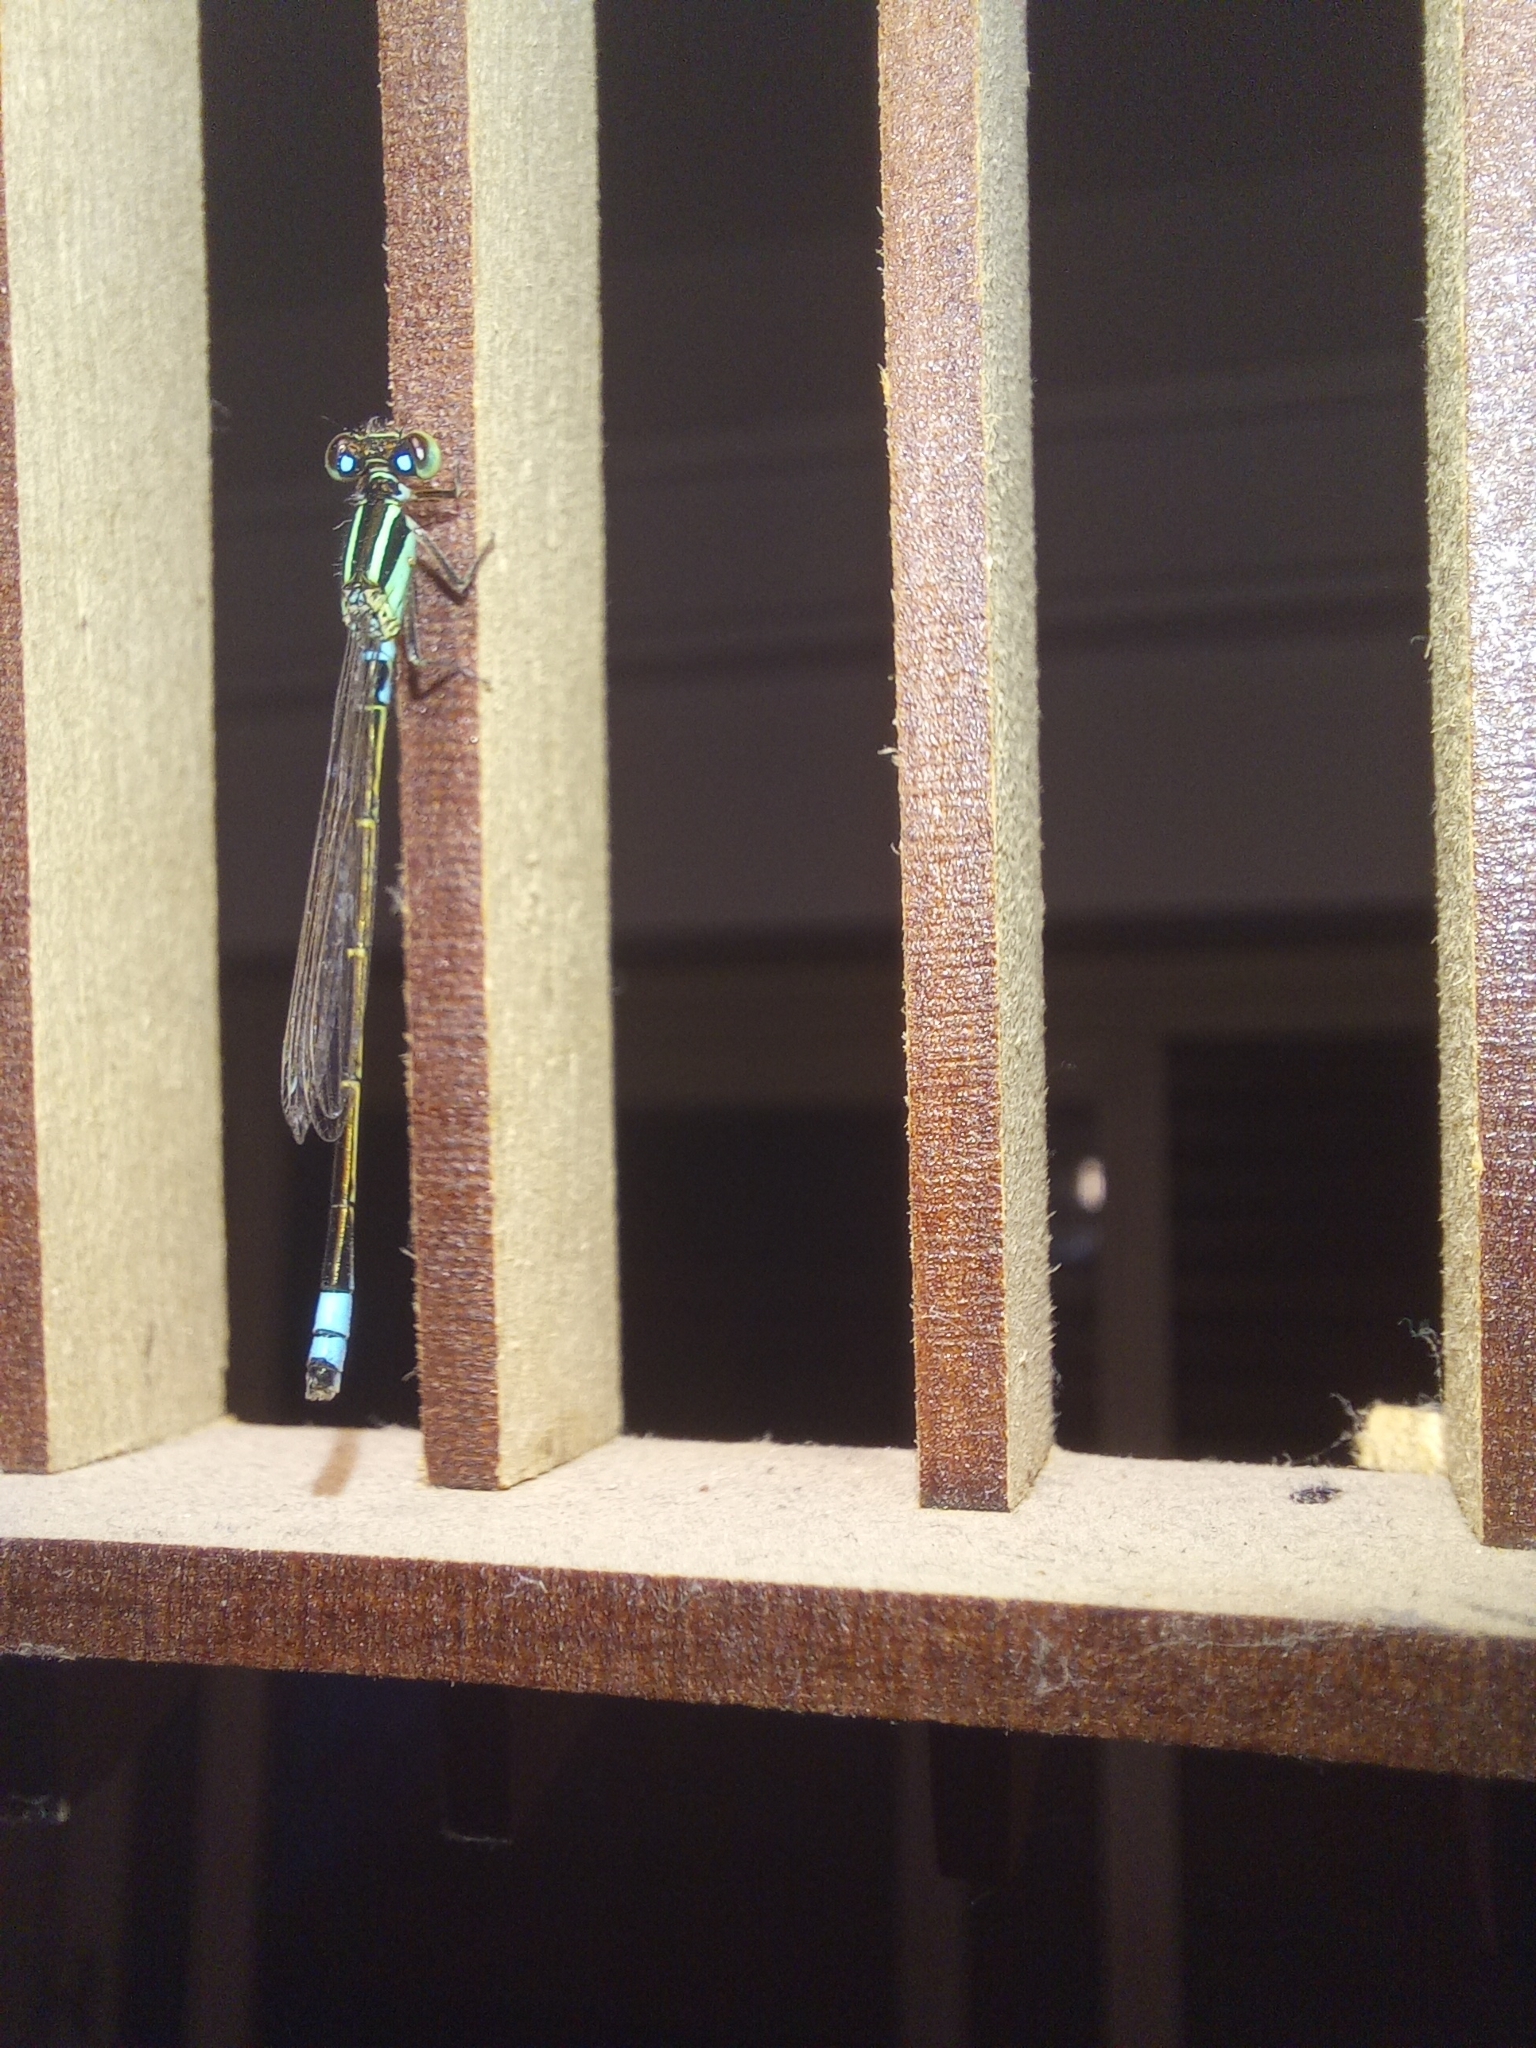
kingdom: Animalia
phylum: Arthropoda
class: Insecta
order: Odonata
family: Coenagrionidae
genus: Ischnura
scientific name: Ischnura fluviatilis
